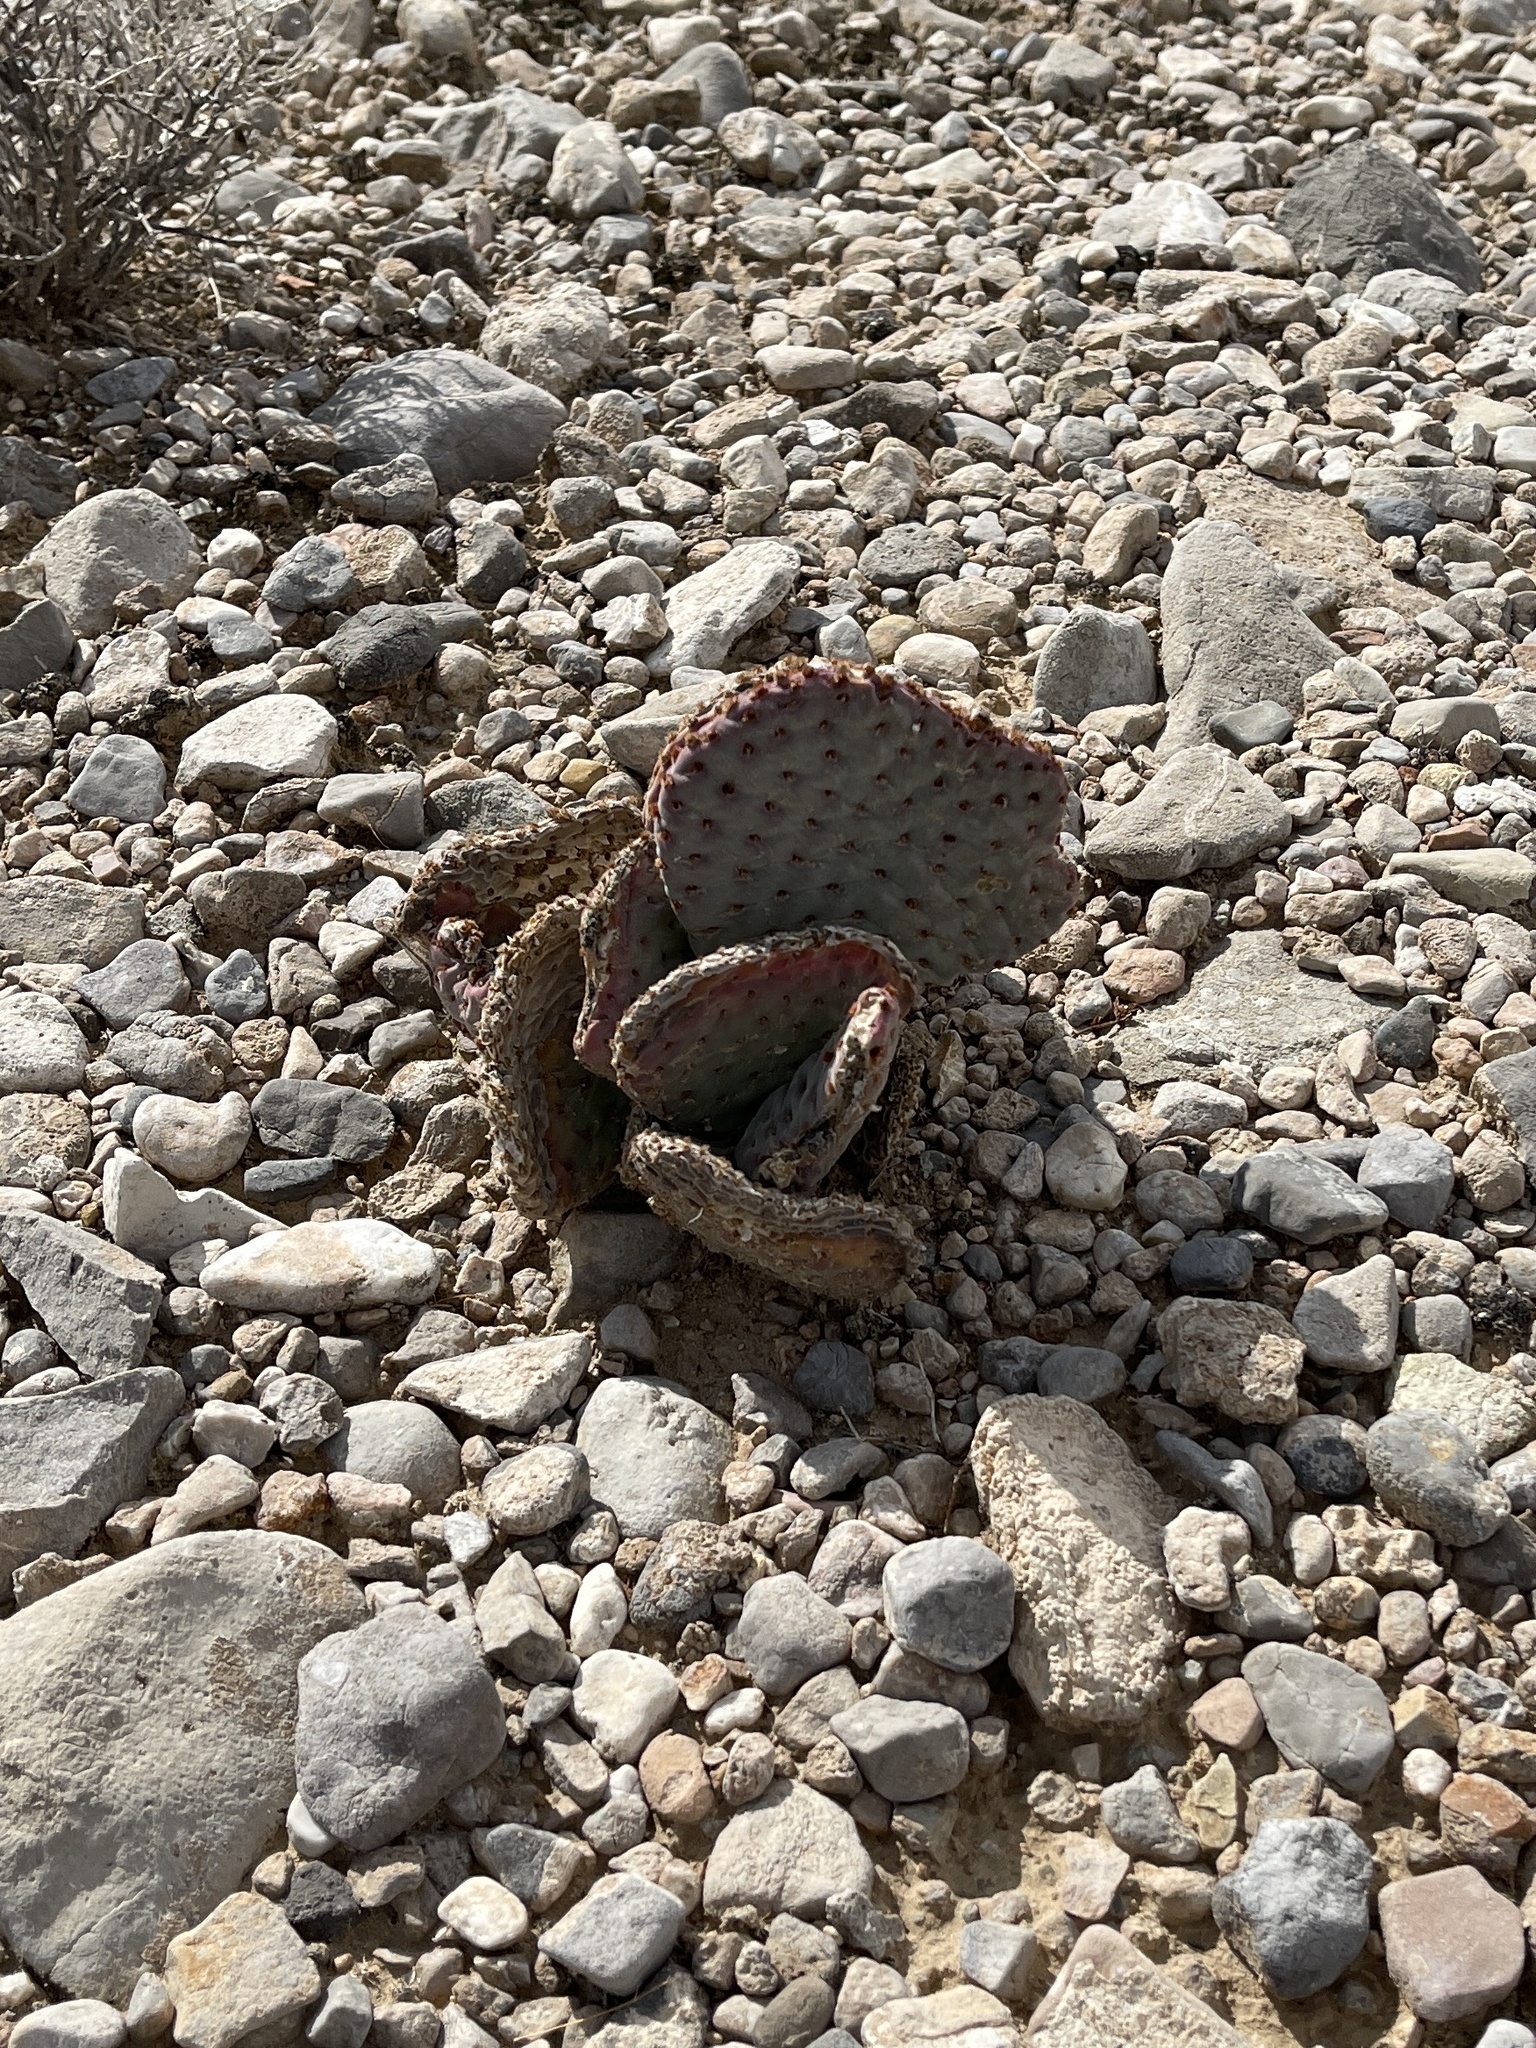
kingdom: Plantae
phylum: Tracheophyta
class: Magnoliopsida
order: Caryophyllales
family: Cactaceae
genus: Opuntia
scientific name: Opuntia basilaris
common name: Beavertail prickly-pear
